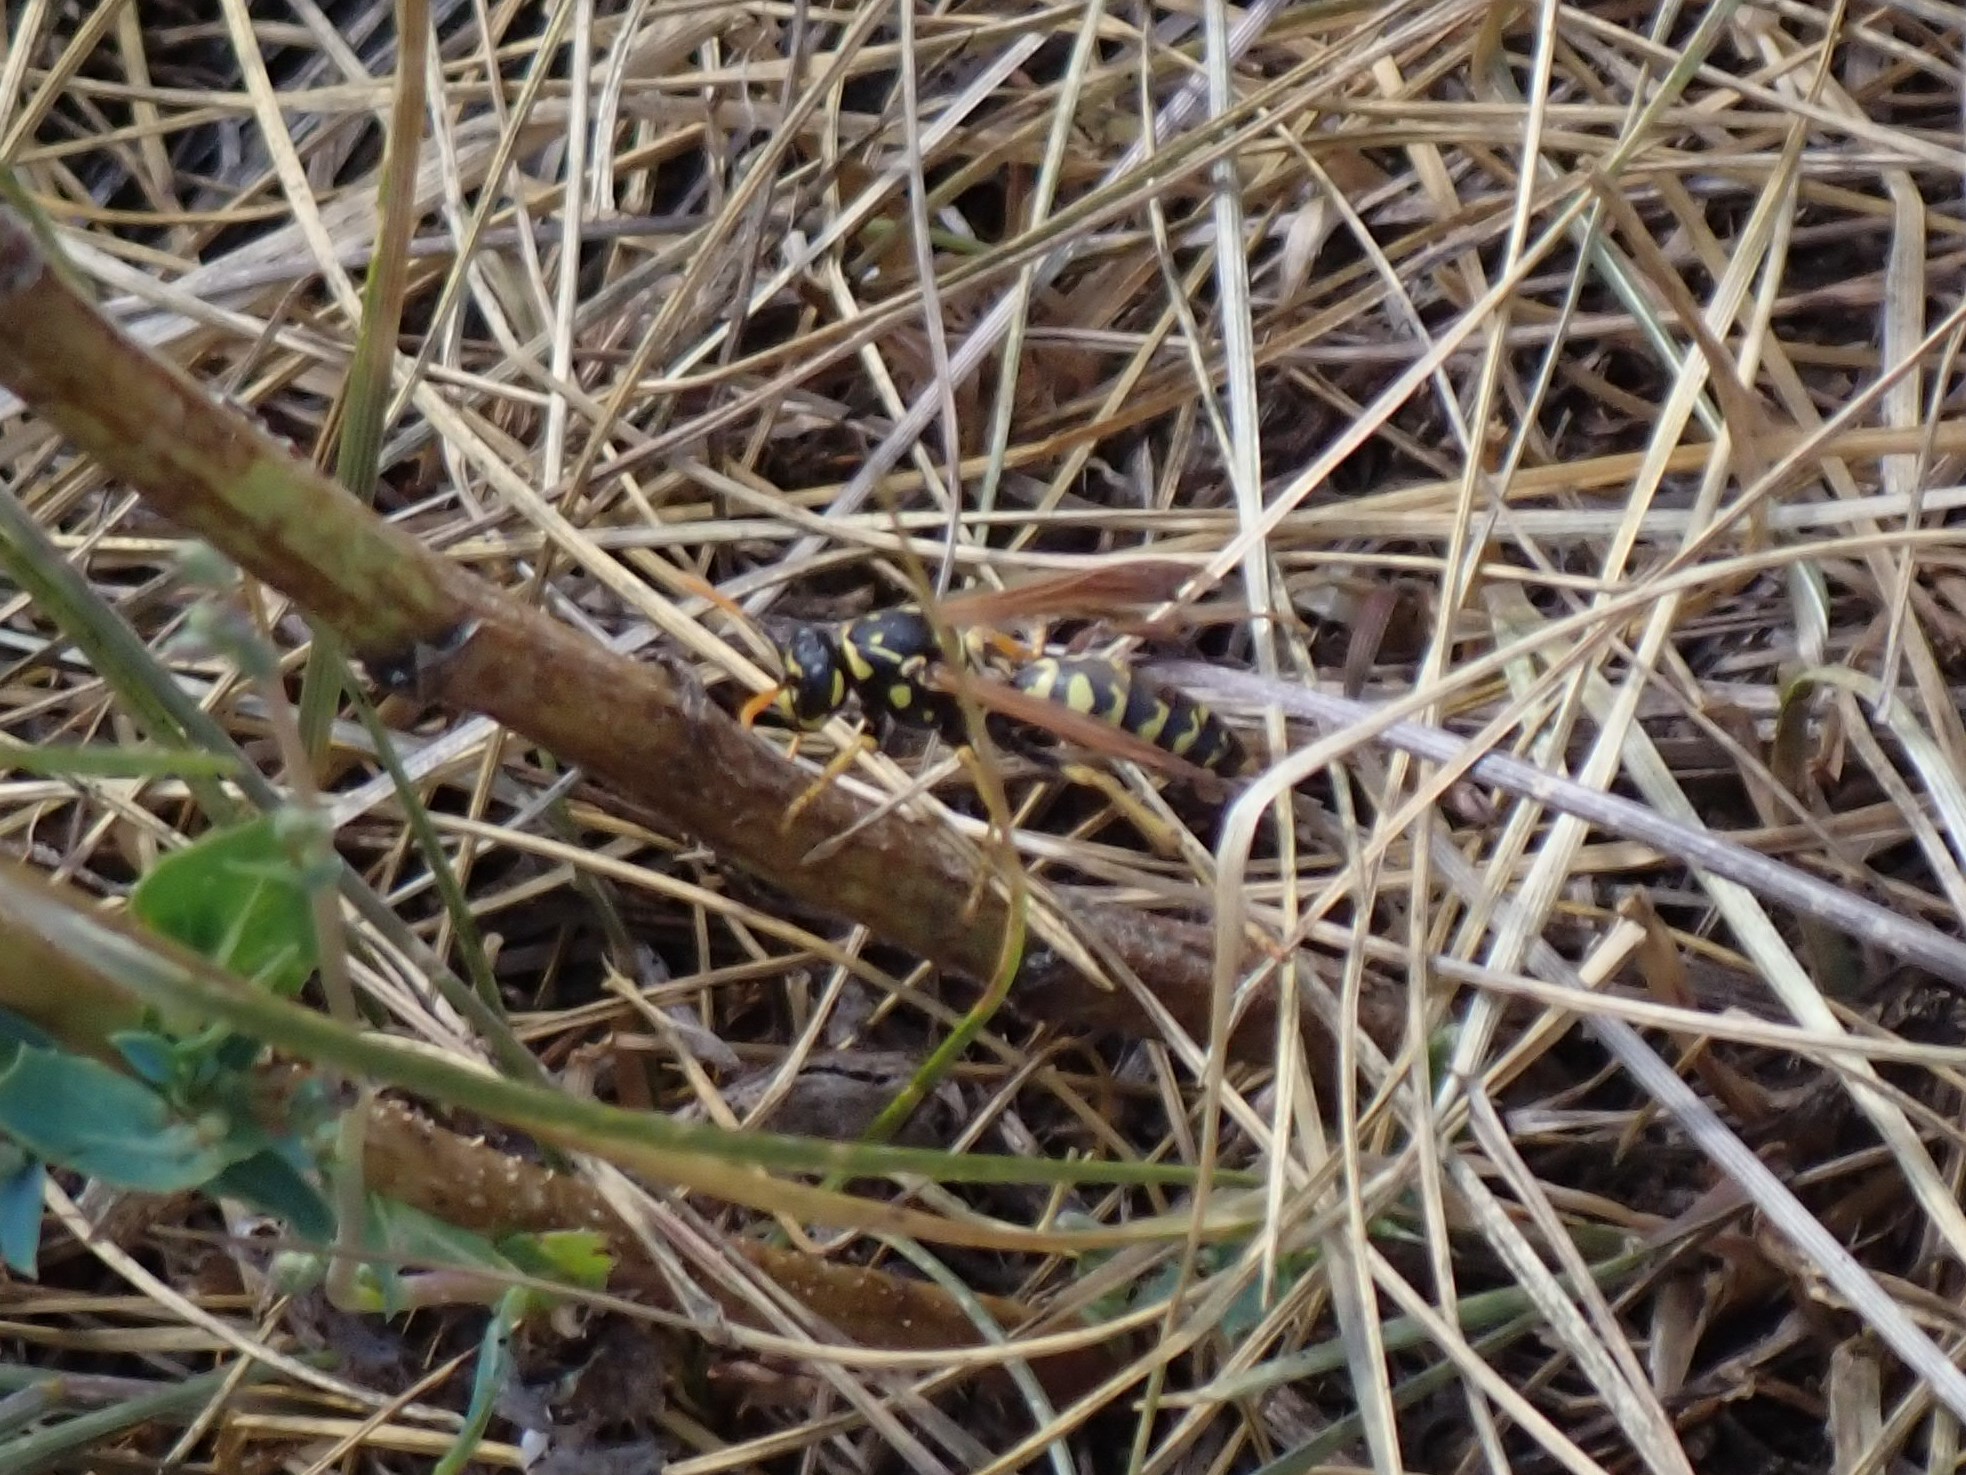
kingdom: Animalia
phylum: Arthropoda
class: Insecta
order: Hymenoptera
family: Eumenidae
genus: Polistes
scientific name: Polistes dominula
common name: Paper wasp
